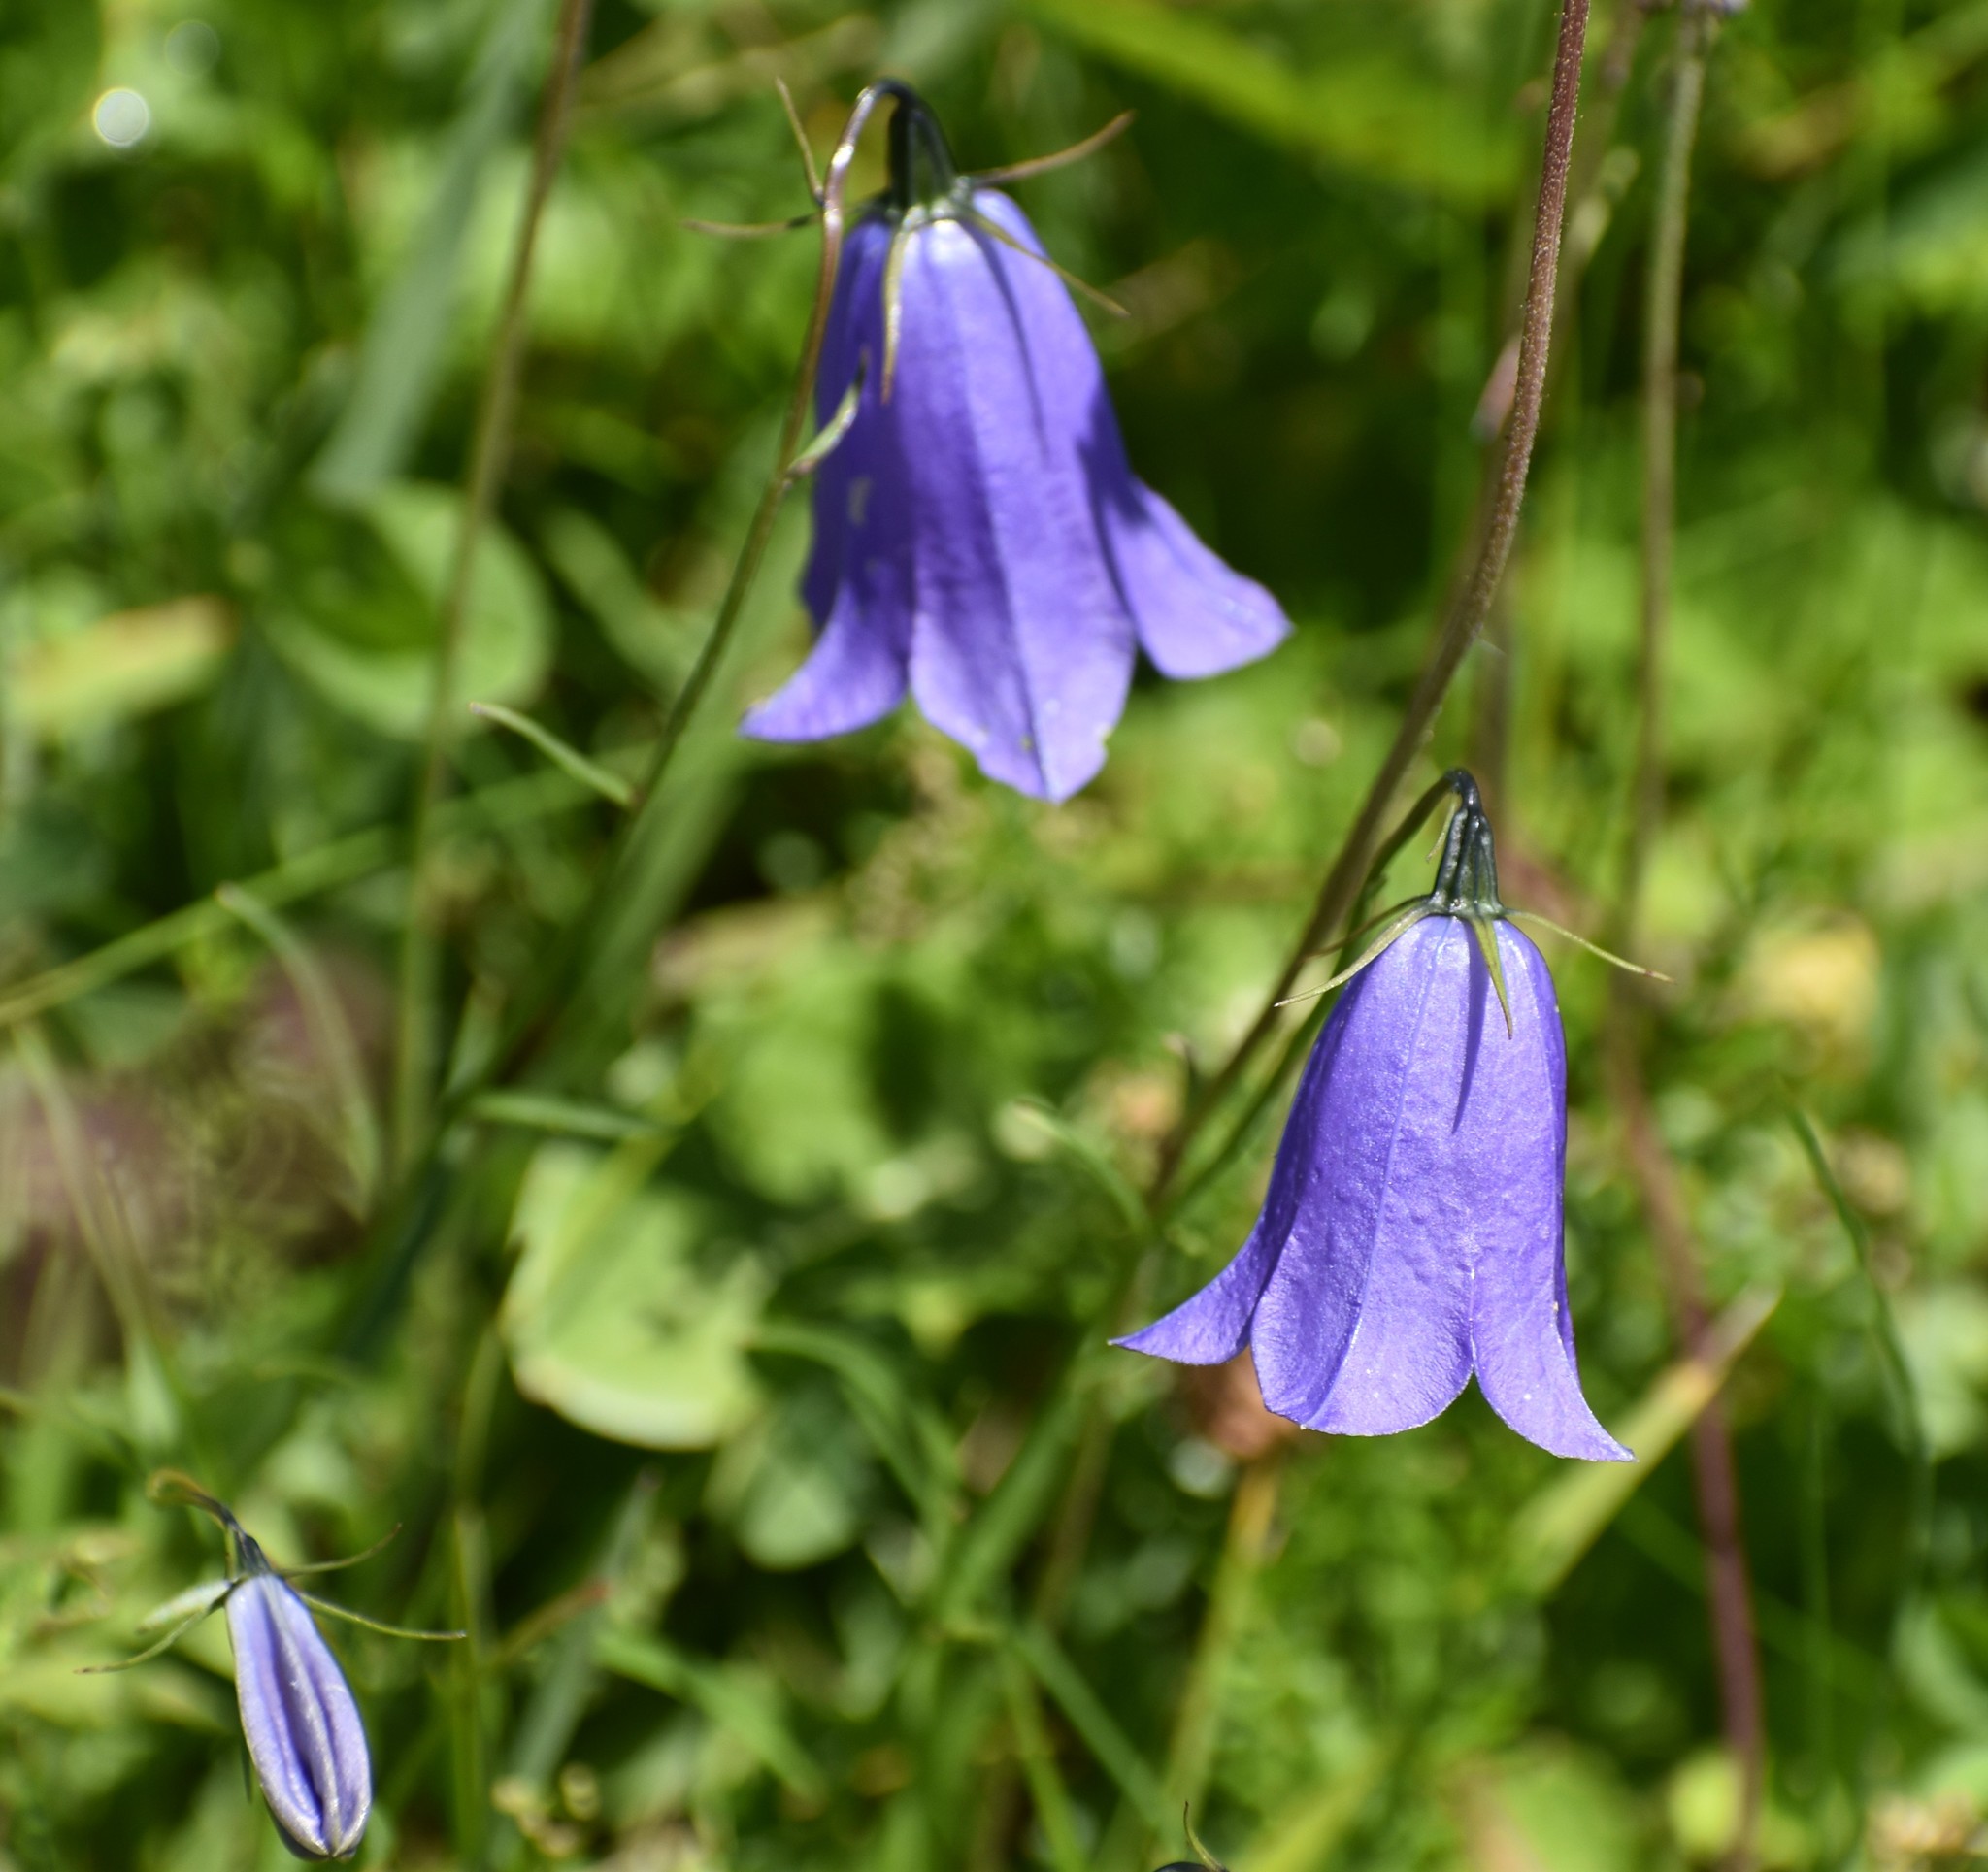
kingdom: Plantae
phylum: Tracheophyta
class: Magnoliopsida
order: Asterales
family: Campanulaceae
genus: Campanula
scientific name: Campanula scheuchzeri
